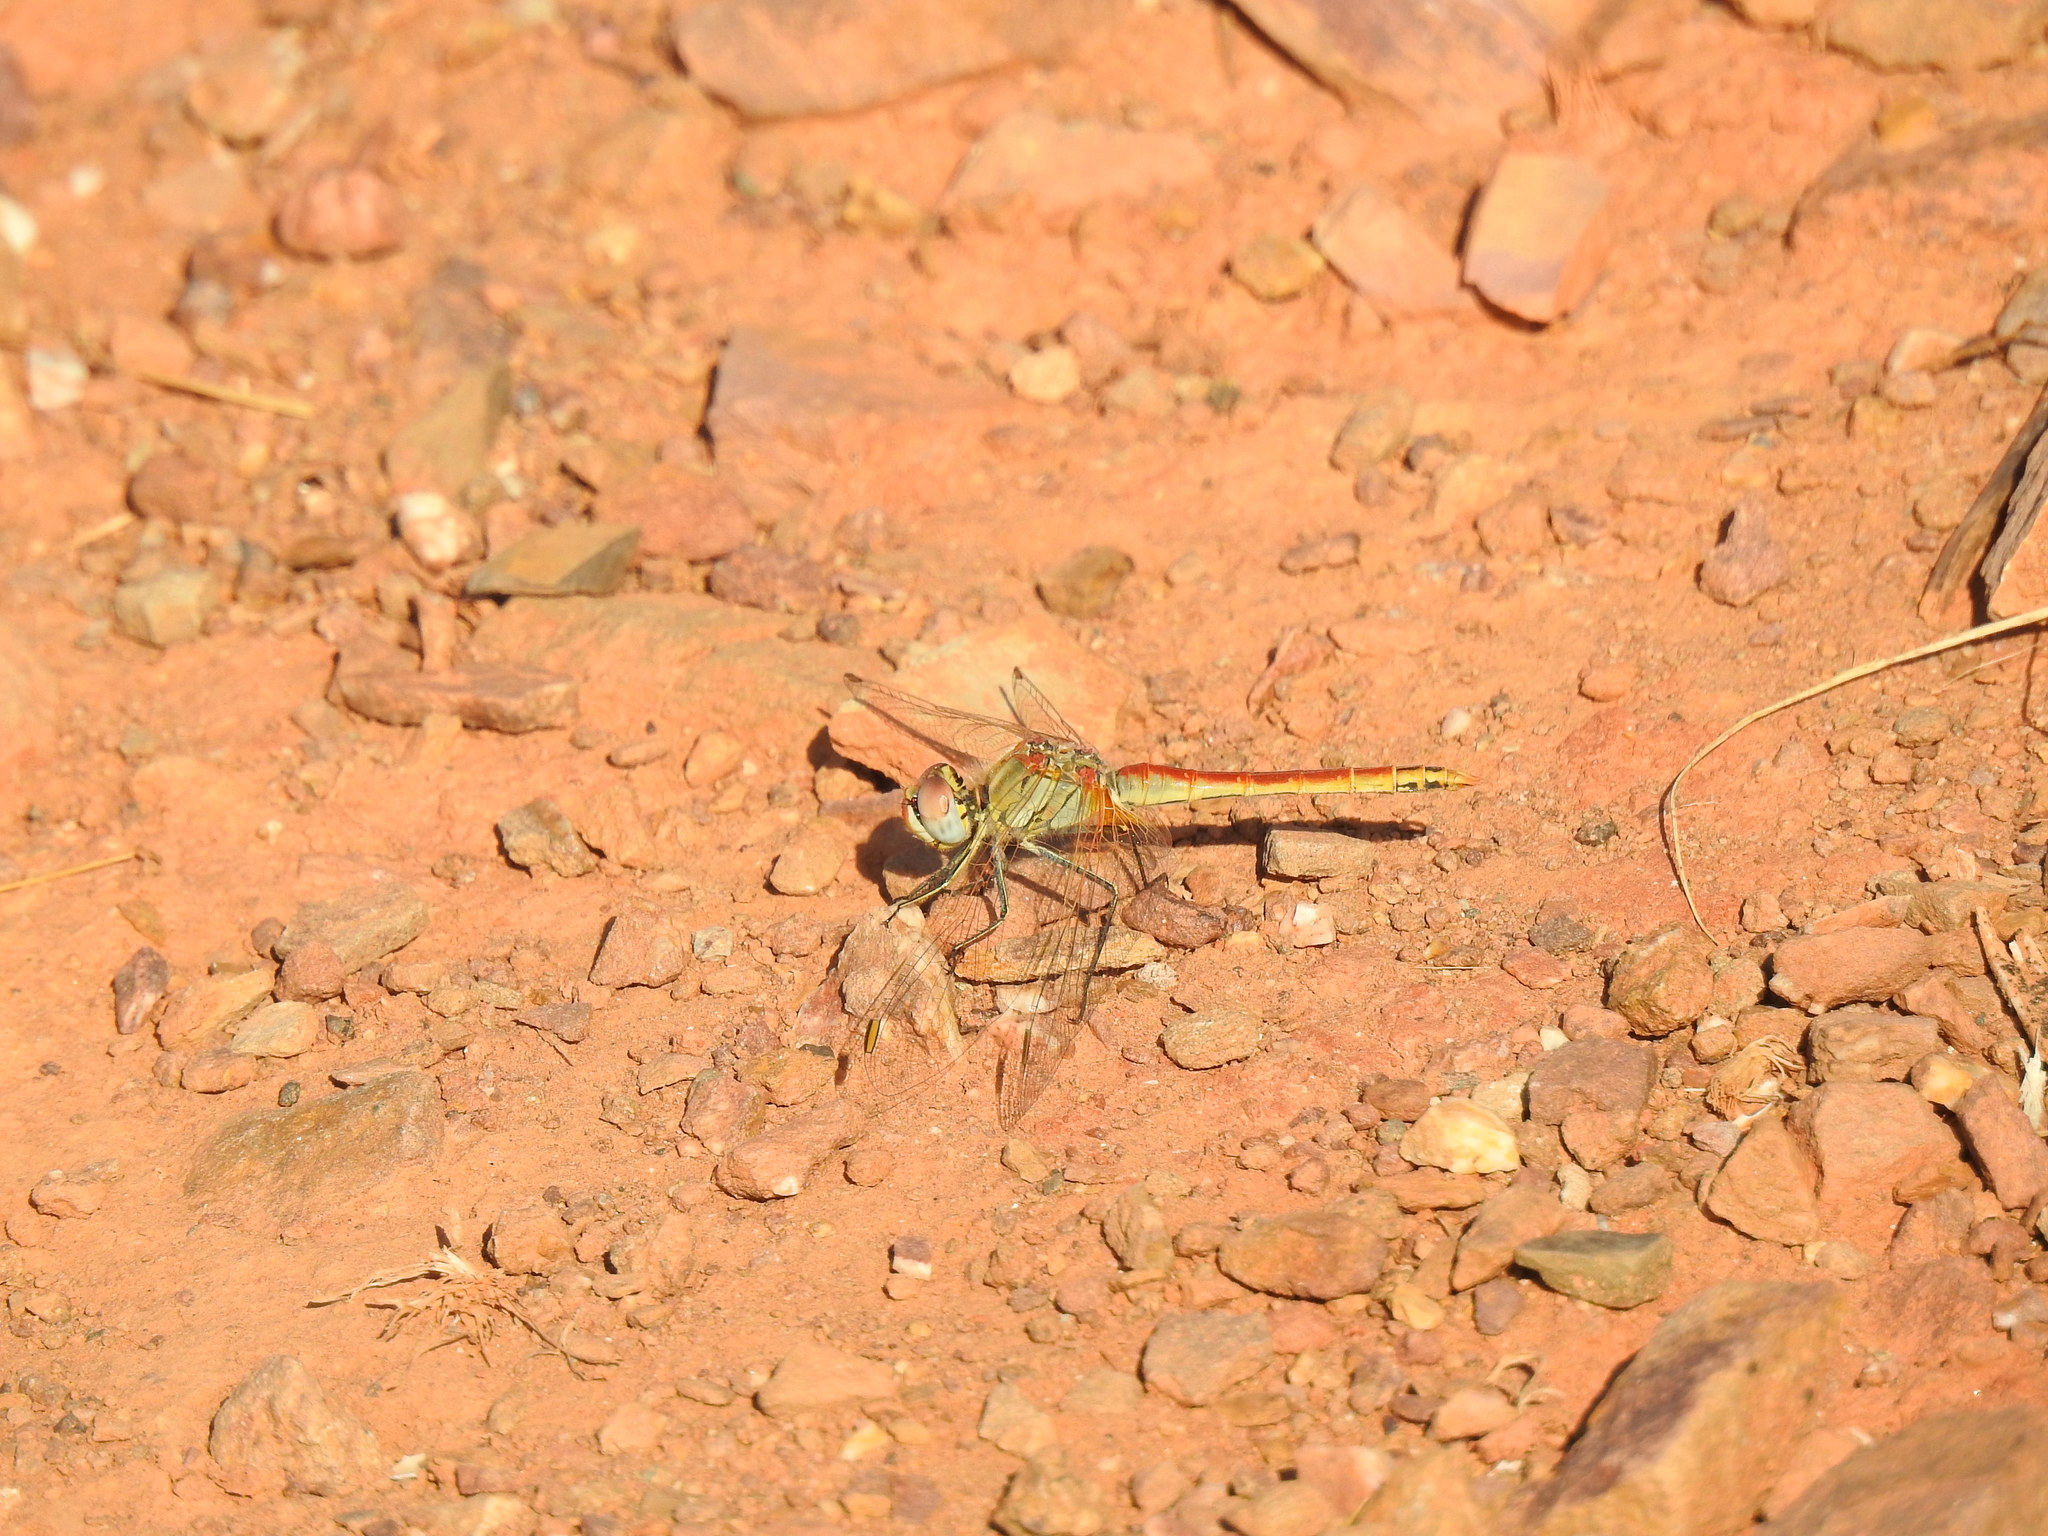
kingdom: Animalia
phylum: Arthropoda
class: Insecta
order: Odonata
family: Libellulidae
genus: Sympetrum
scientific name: Sympetrum fonscolombii
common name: Red-veined darter
